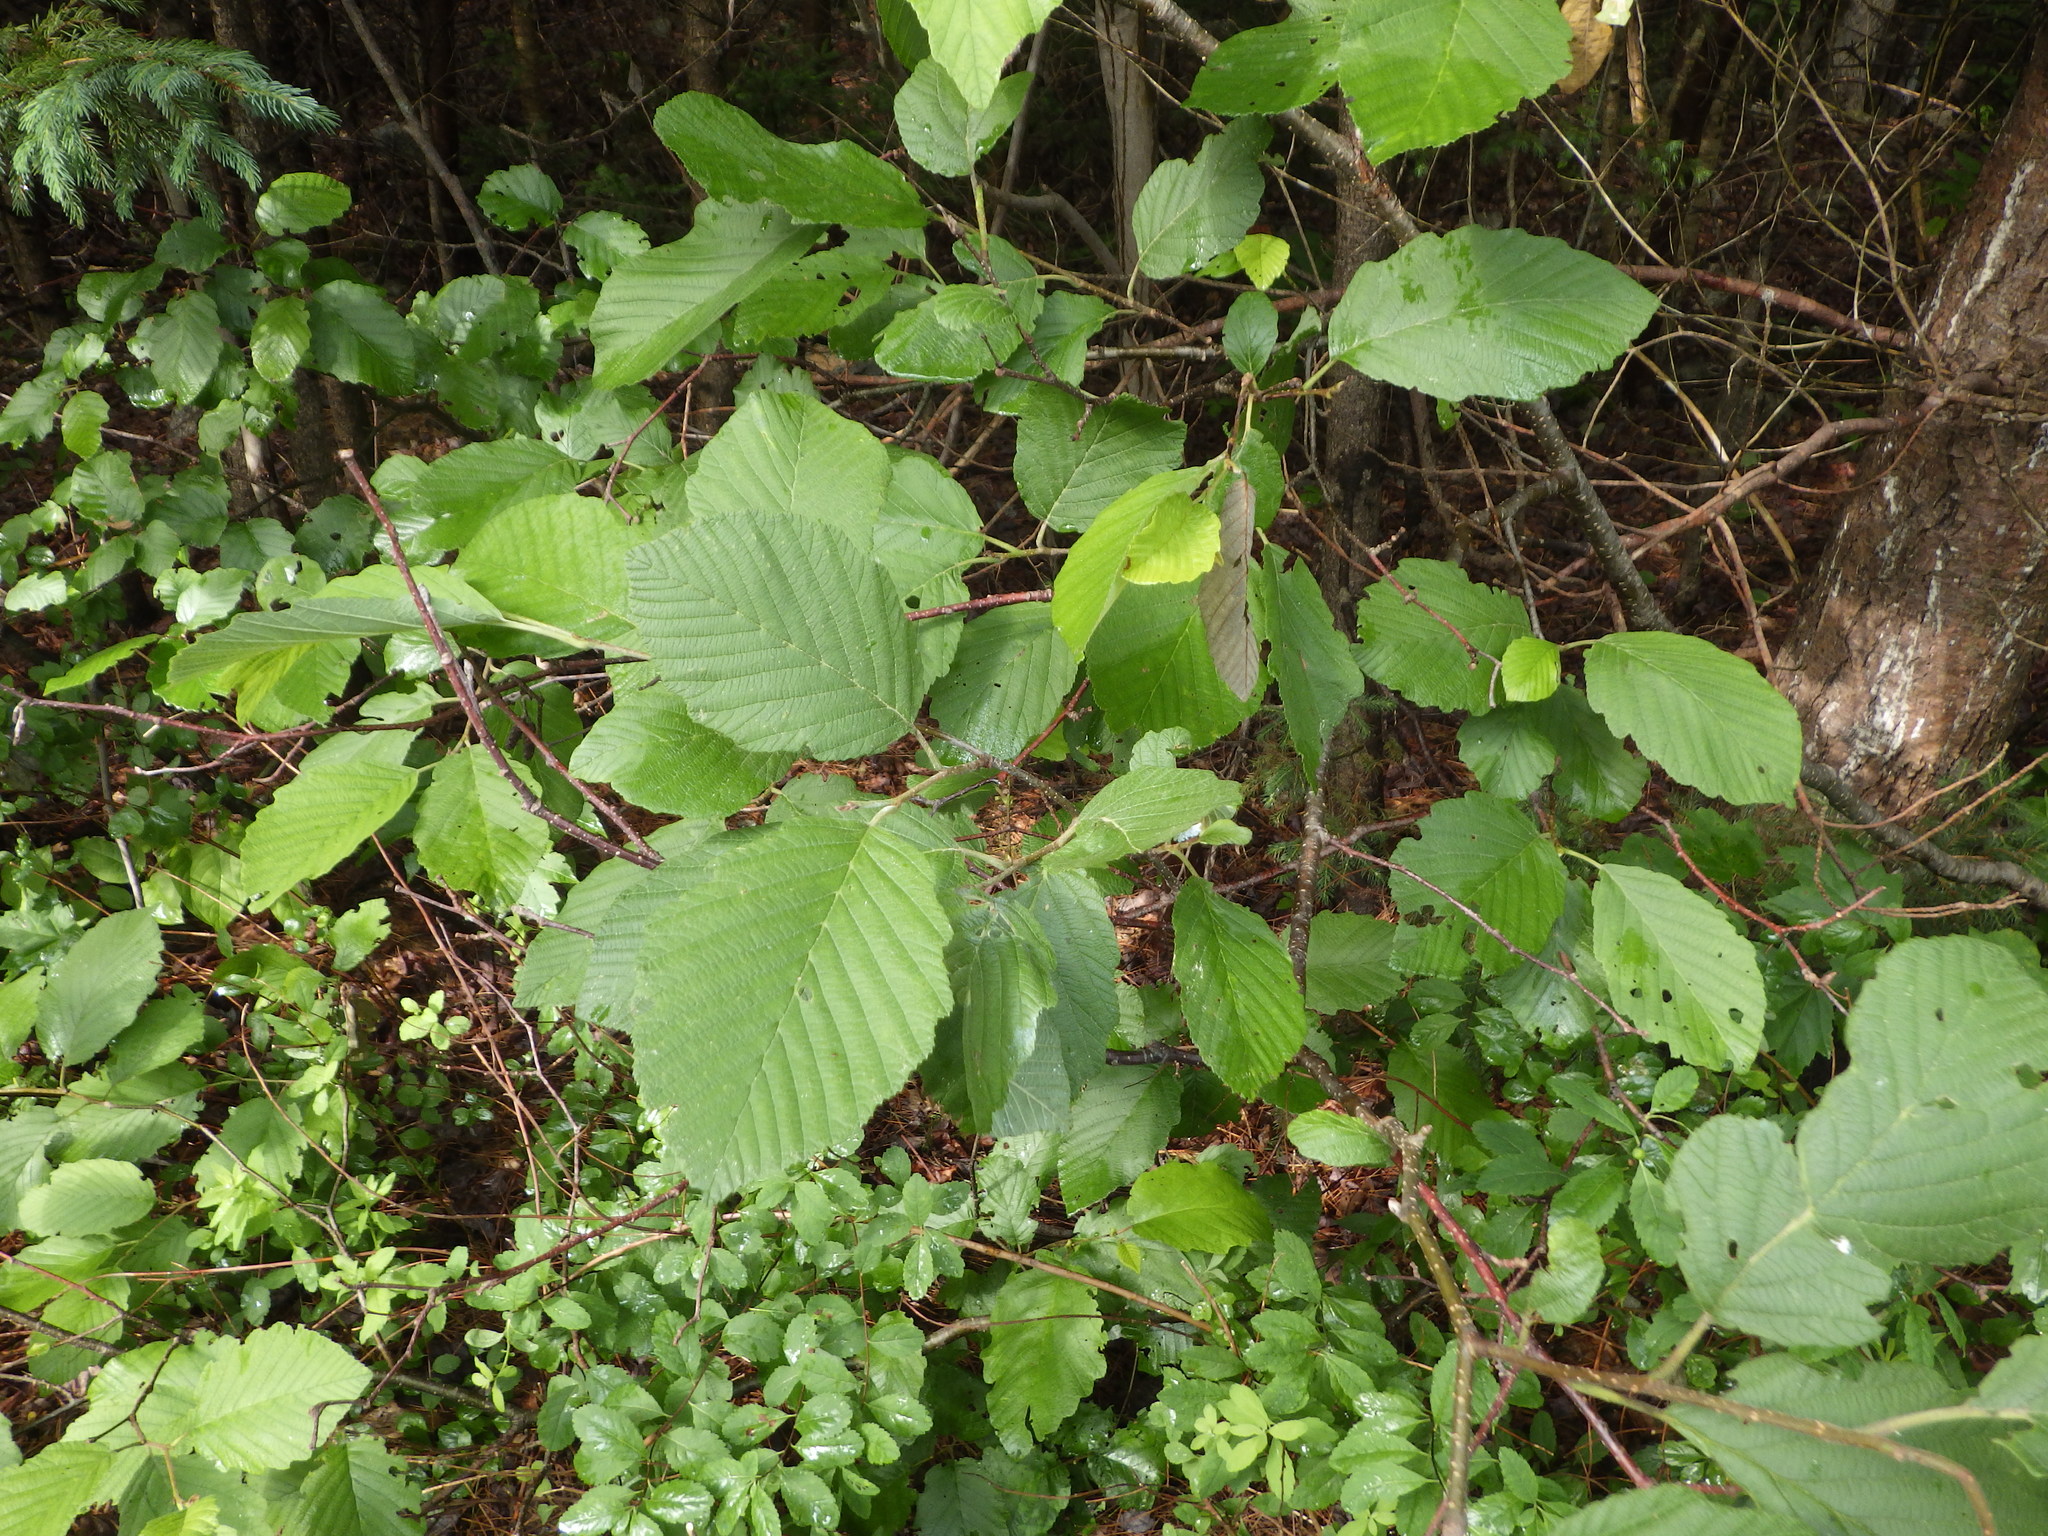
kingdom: Plantae
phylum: Tracheophyta
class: Magnoliopsida
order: Fagales
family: Betulaceae
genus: Alnus
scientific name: Alnus incana
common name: Grey alder
